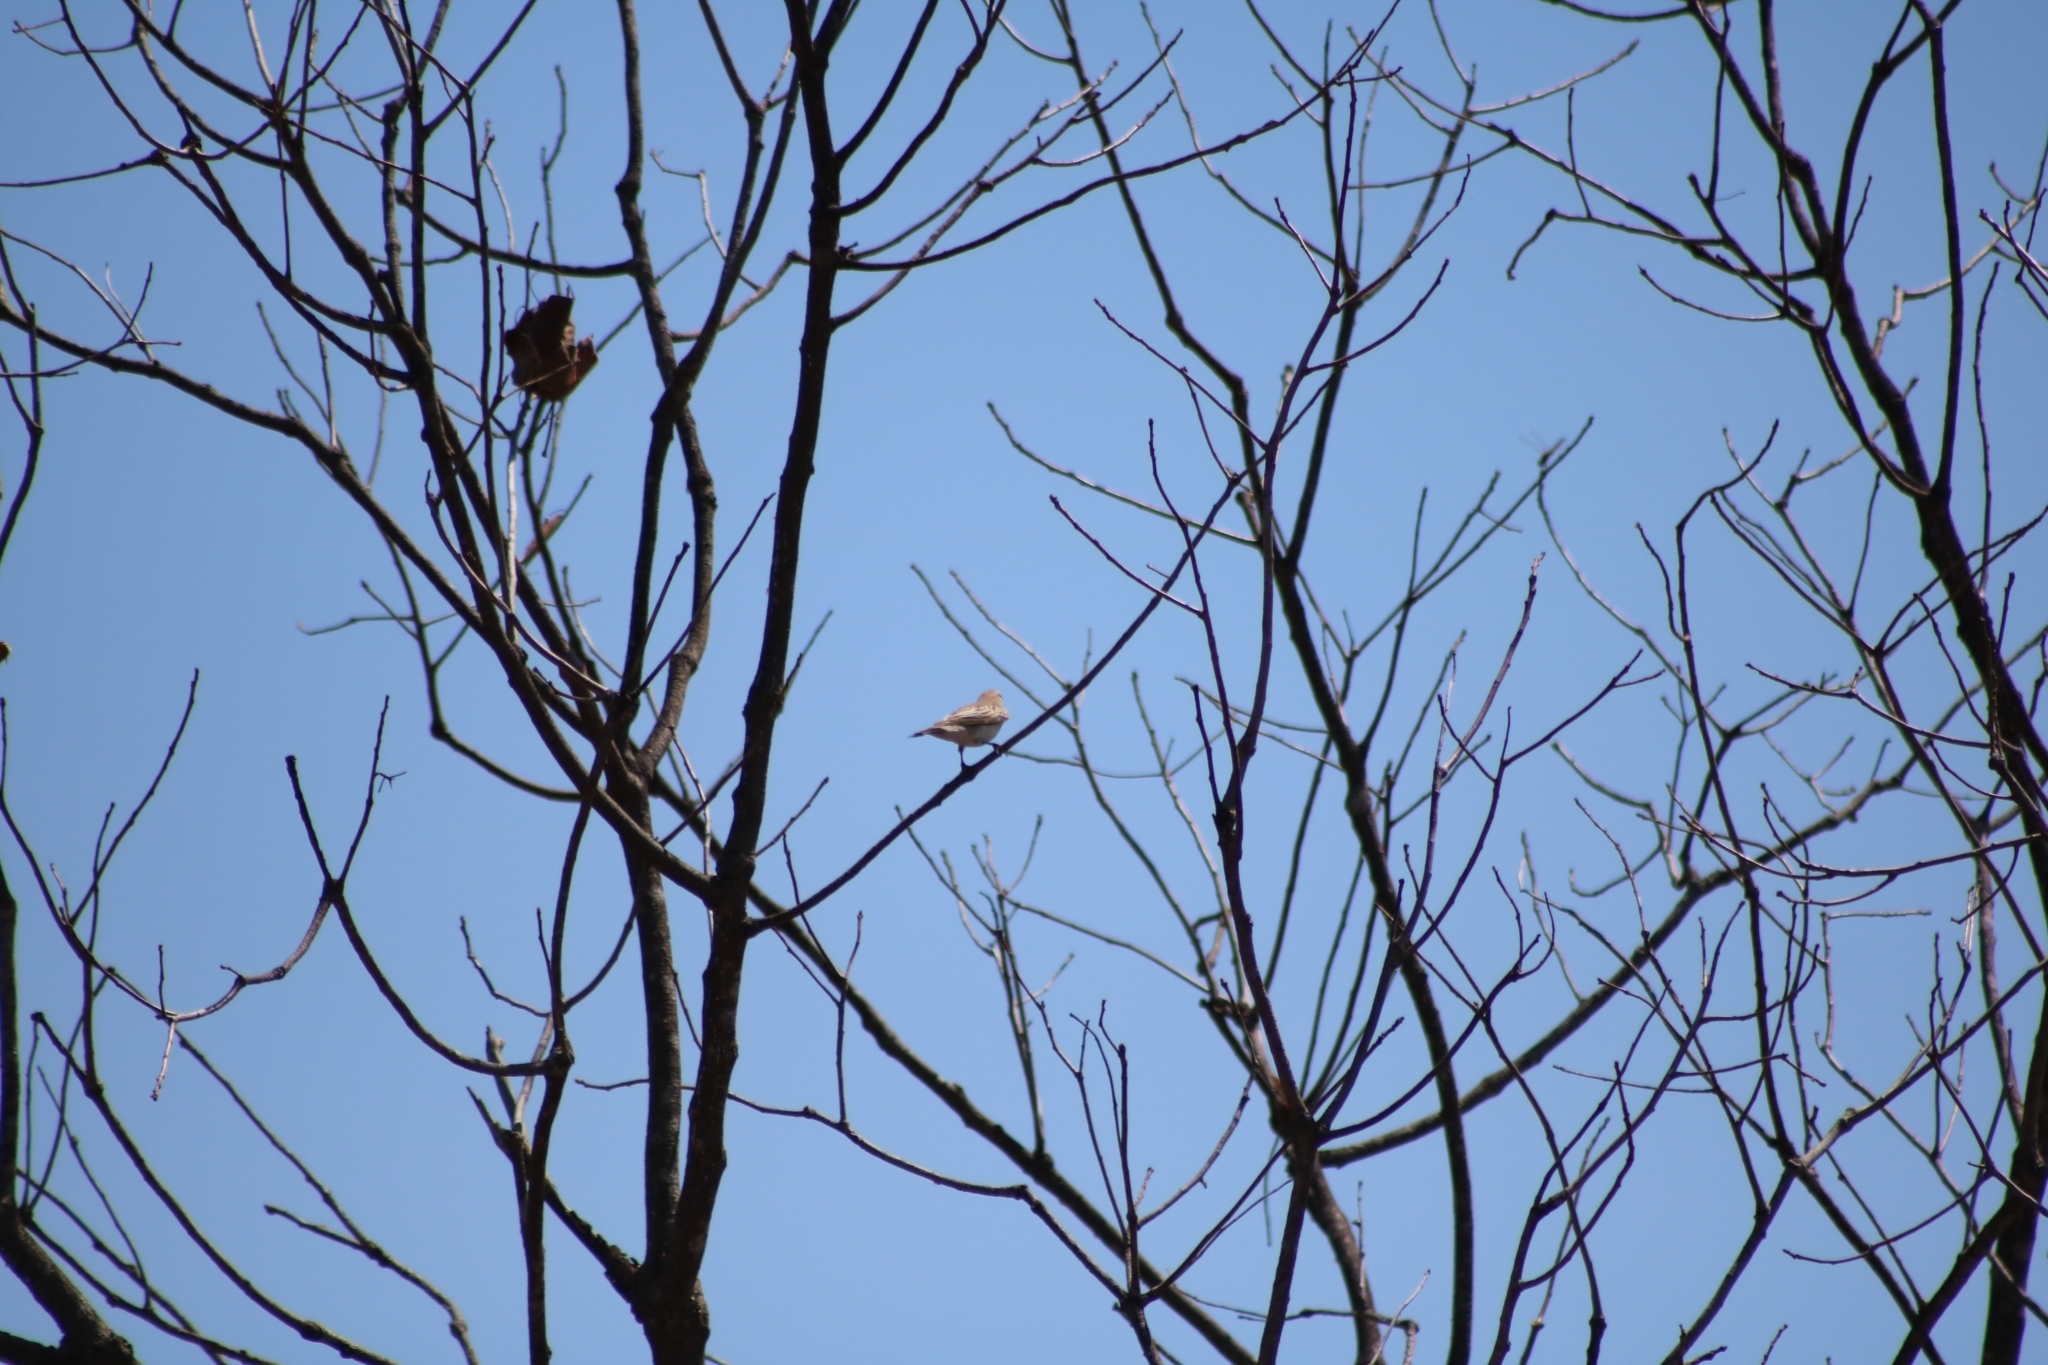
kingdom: Animalia
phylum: Chordata
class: Aves
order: Passeriformes
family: Campephagidae
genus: Lalage
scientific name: Lalage tricolor
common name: White-winged triller
